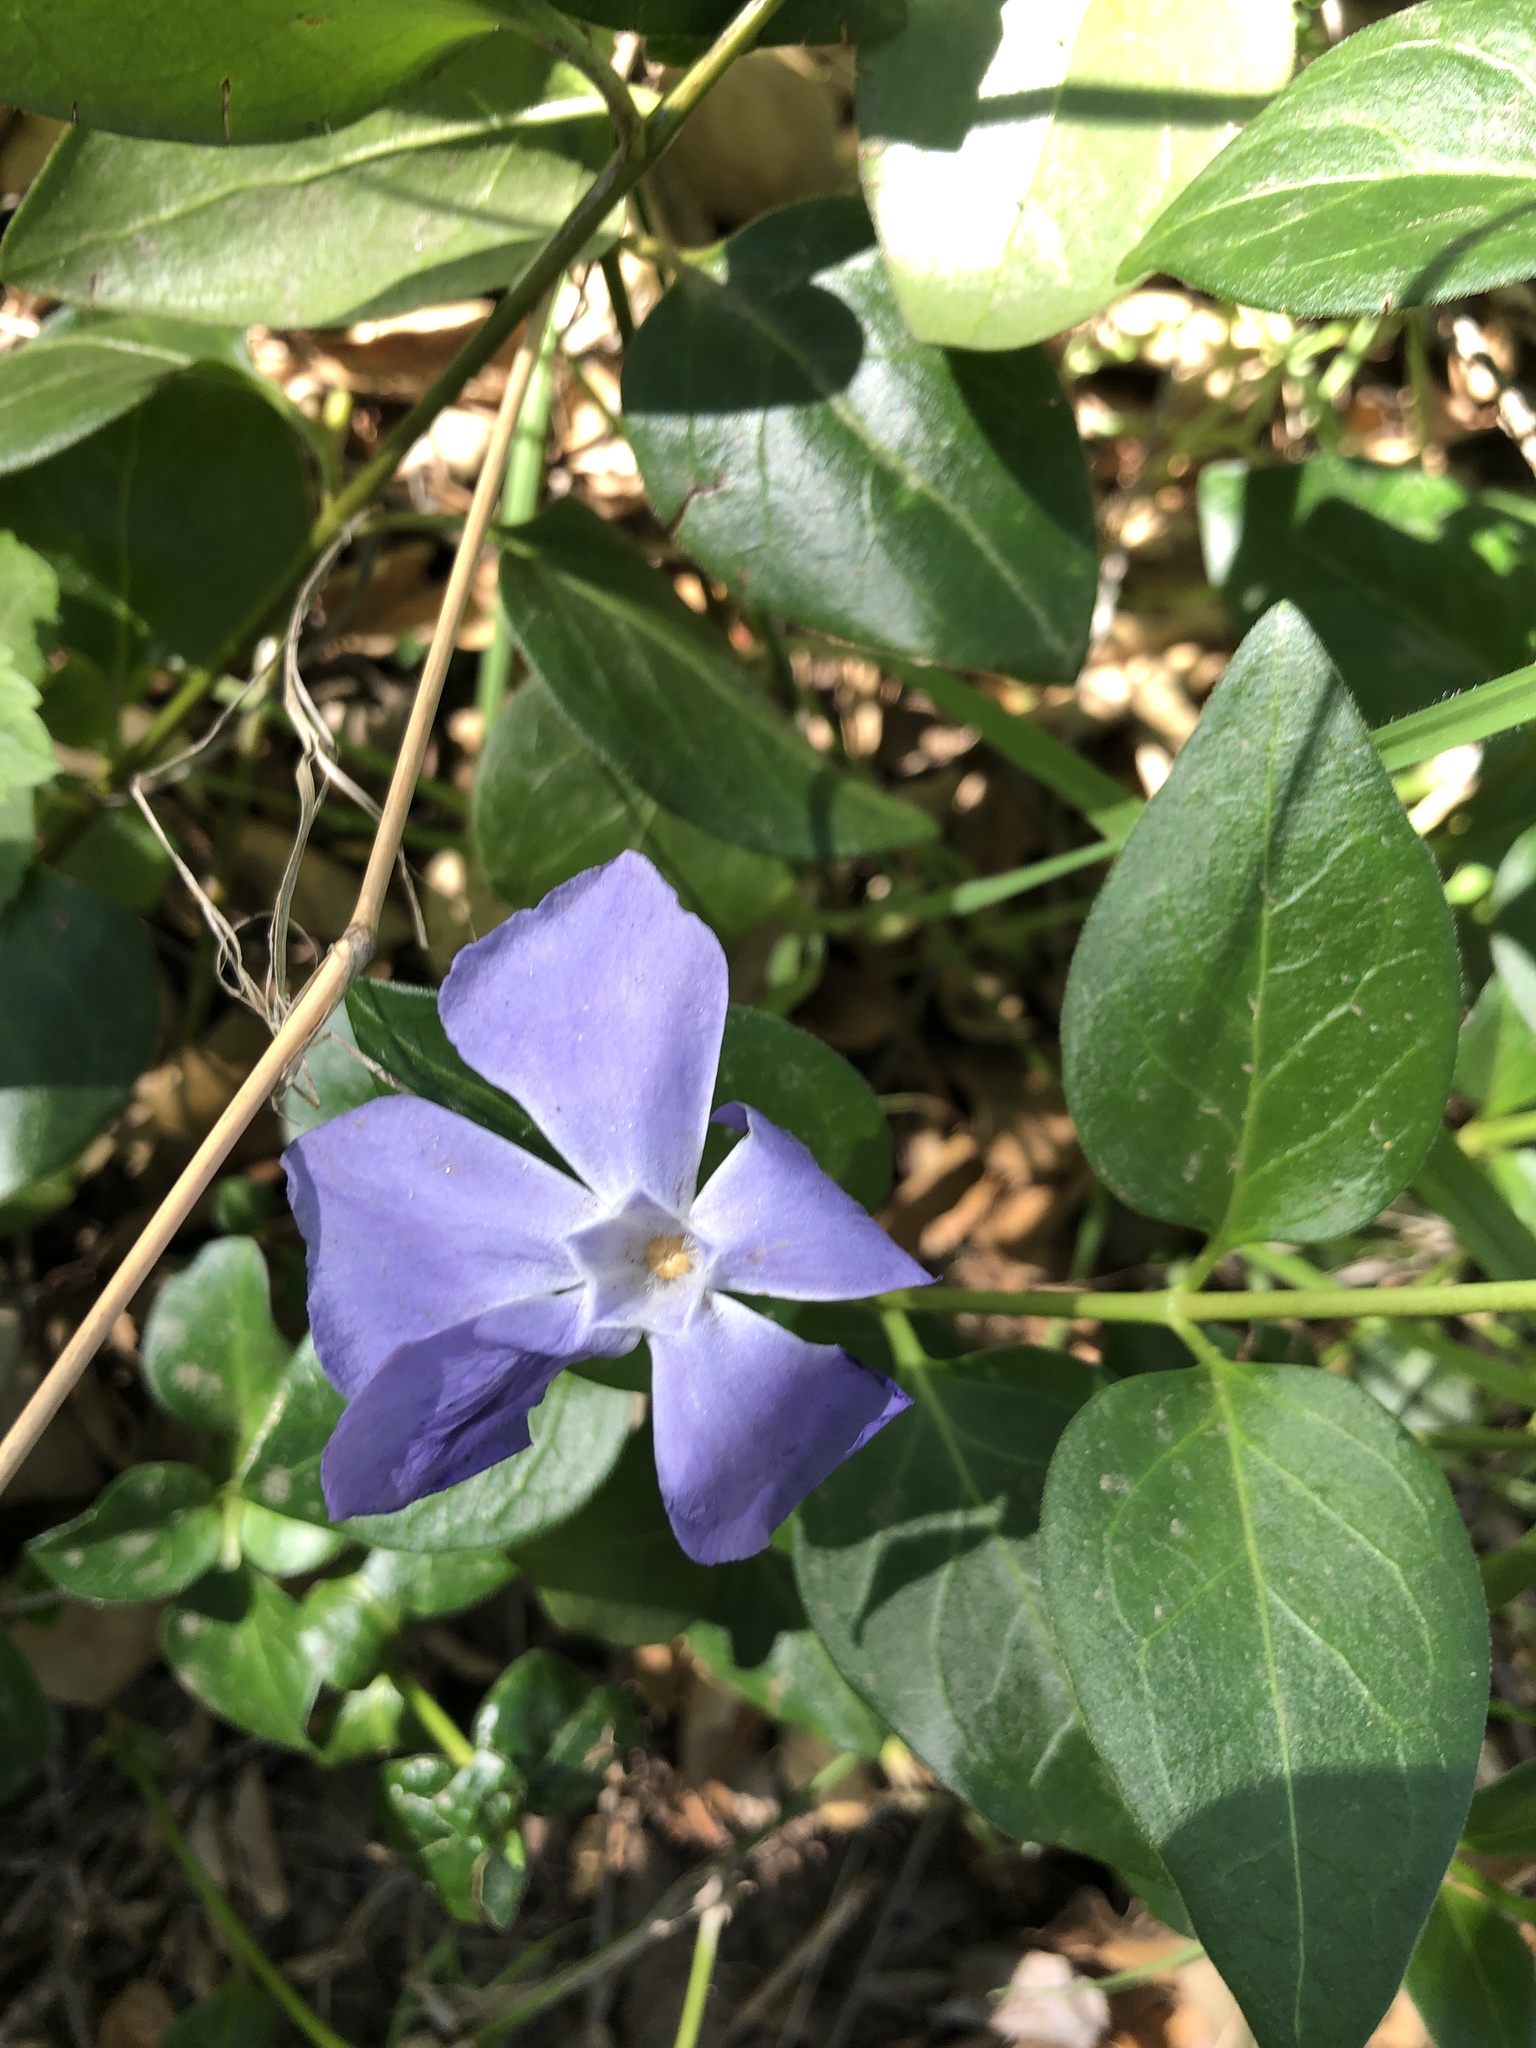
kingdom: Plantae
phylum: Tracheophyta
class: Magnoliopsida
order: Gentianales
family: Apocynaceae
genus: Vinca
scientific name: Vinca major
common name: Greater periwinkle
